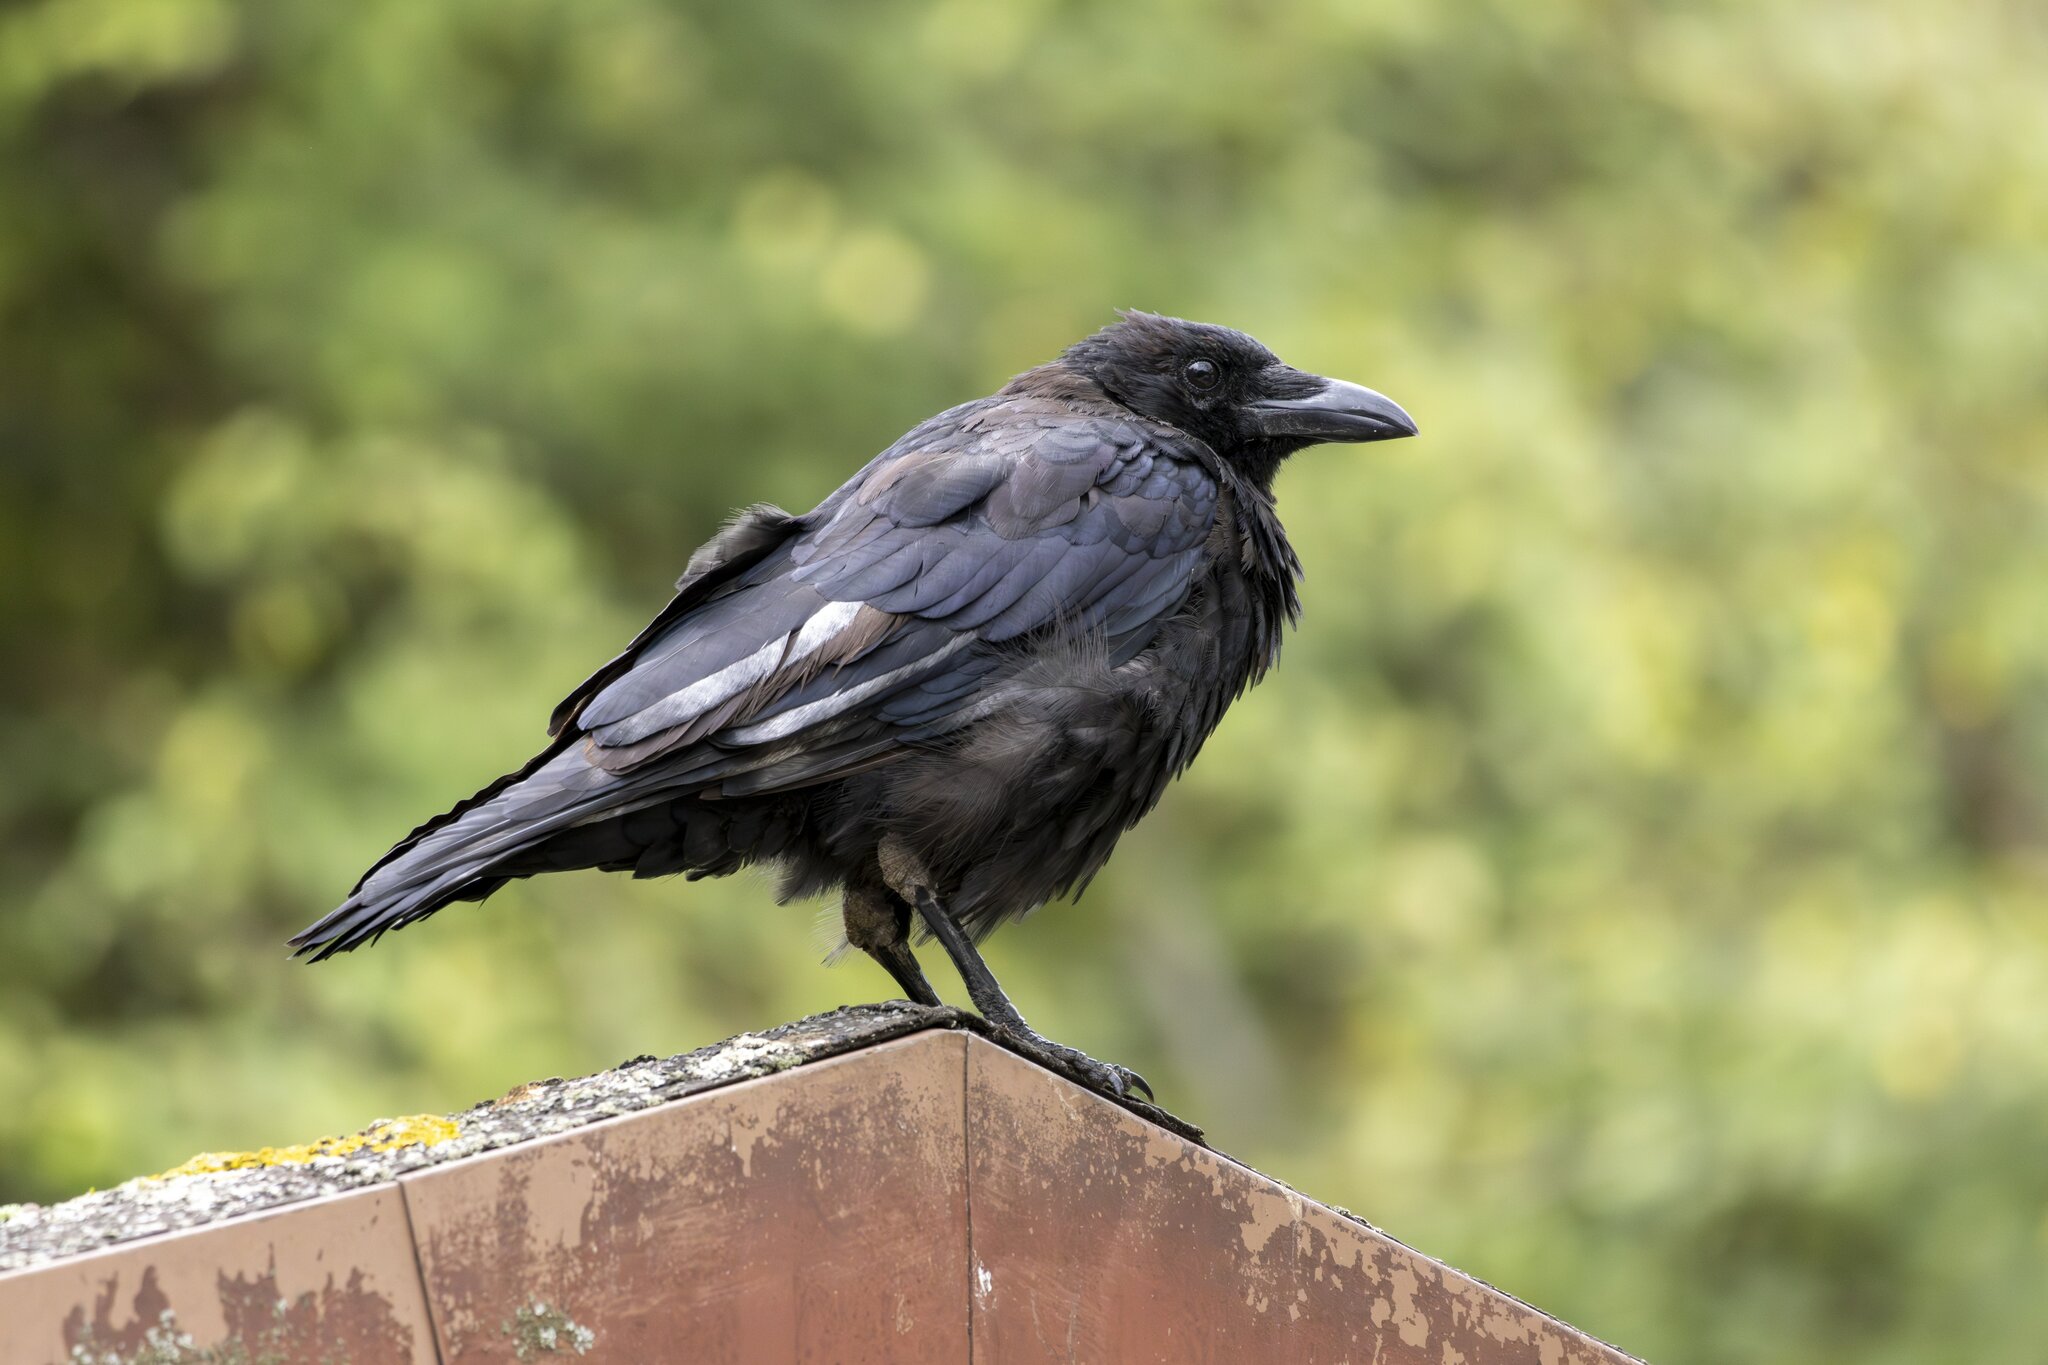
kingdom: Animalia
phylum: Chordata
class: Aves
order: Passeriformes
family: Corvidae
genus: Corvus
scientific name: Corvus corone
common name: Carrion crow
